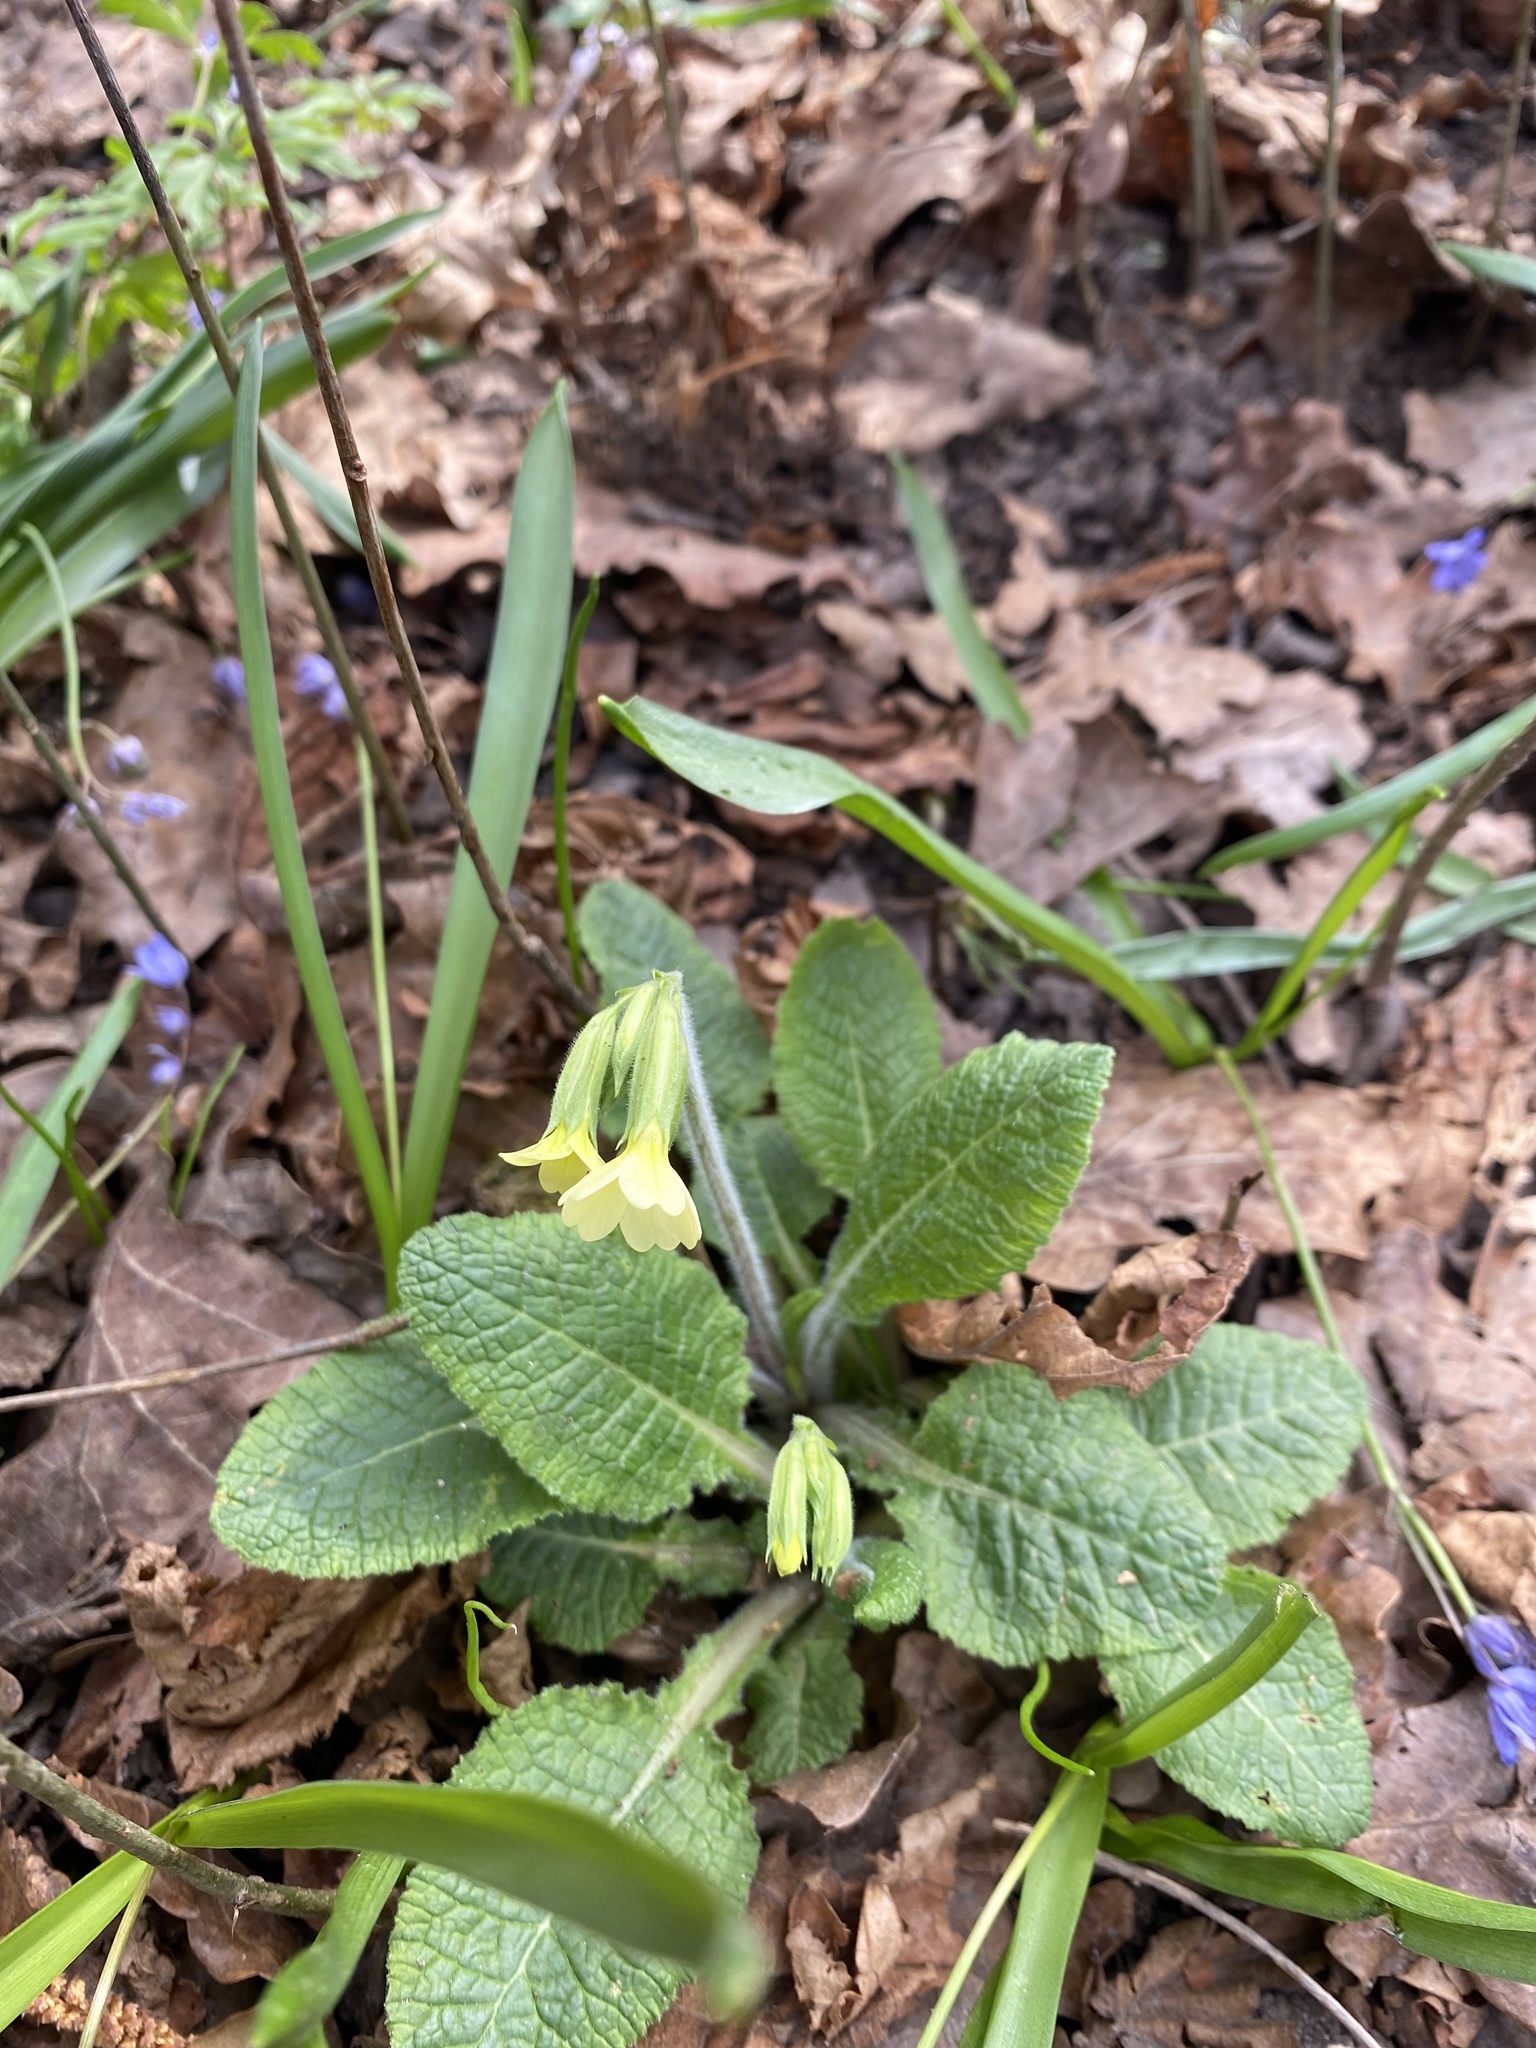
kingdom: Plantae
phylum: Tracheophyta
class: Magnoliopsida
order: Ericales
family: Primulaceae
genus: Primula
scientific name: Primula elatior
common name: Oxlip
